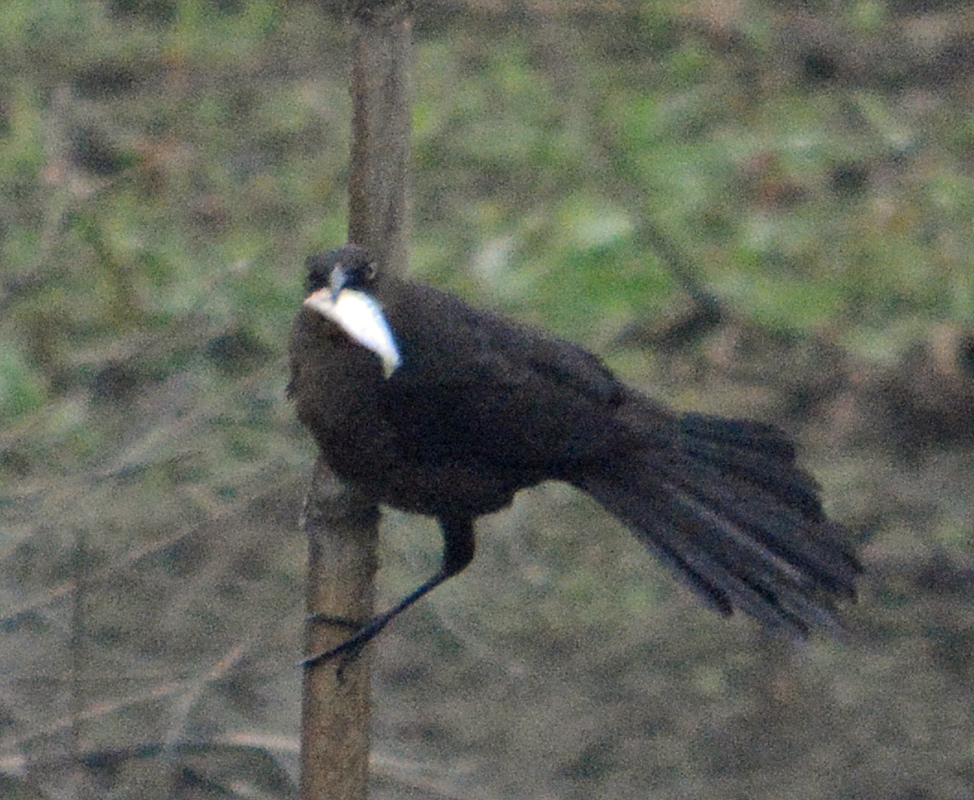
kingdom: Animalia
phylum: Chordata
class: Aves
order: Passeriformes
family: Icteridae
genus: Quiscalus
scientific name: Quiscalus mexicanus
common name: Great-tailed grackle
